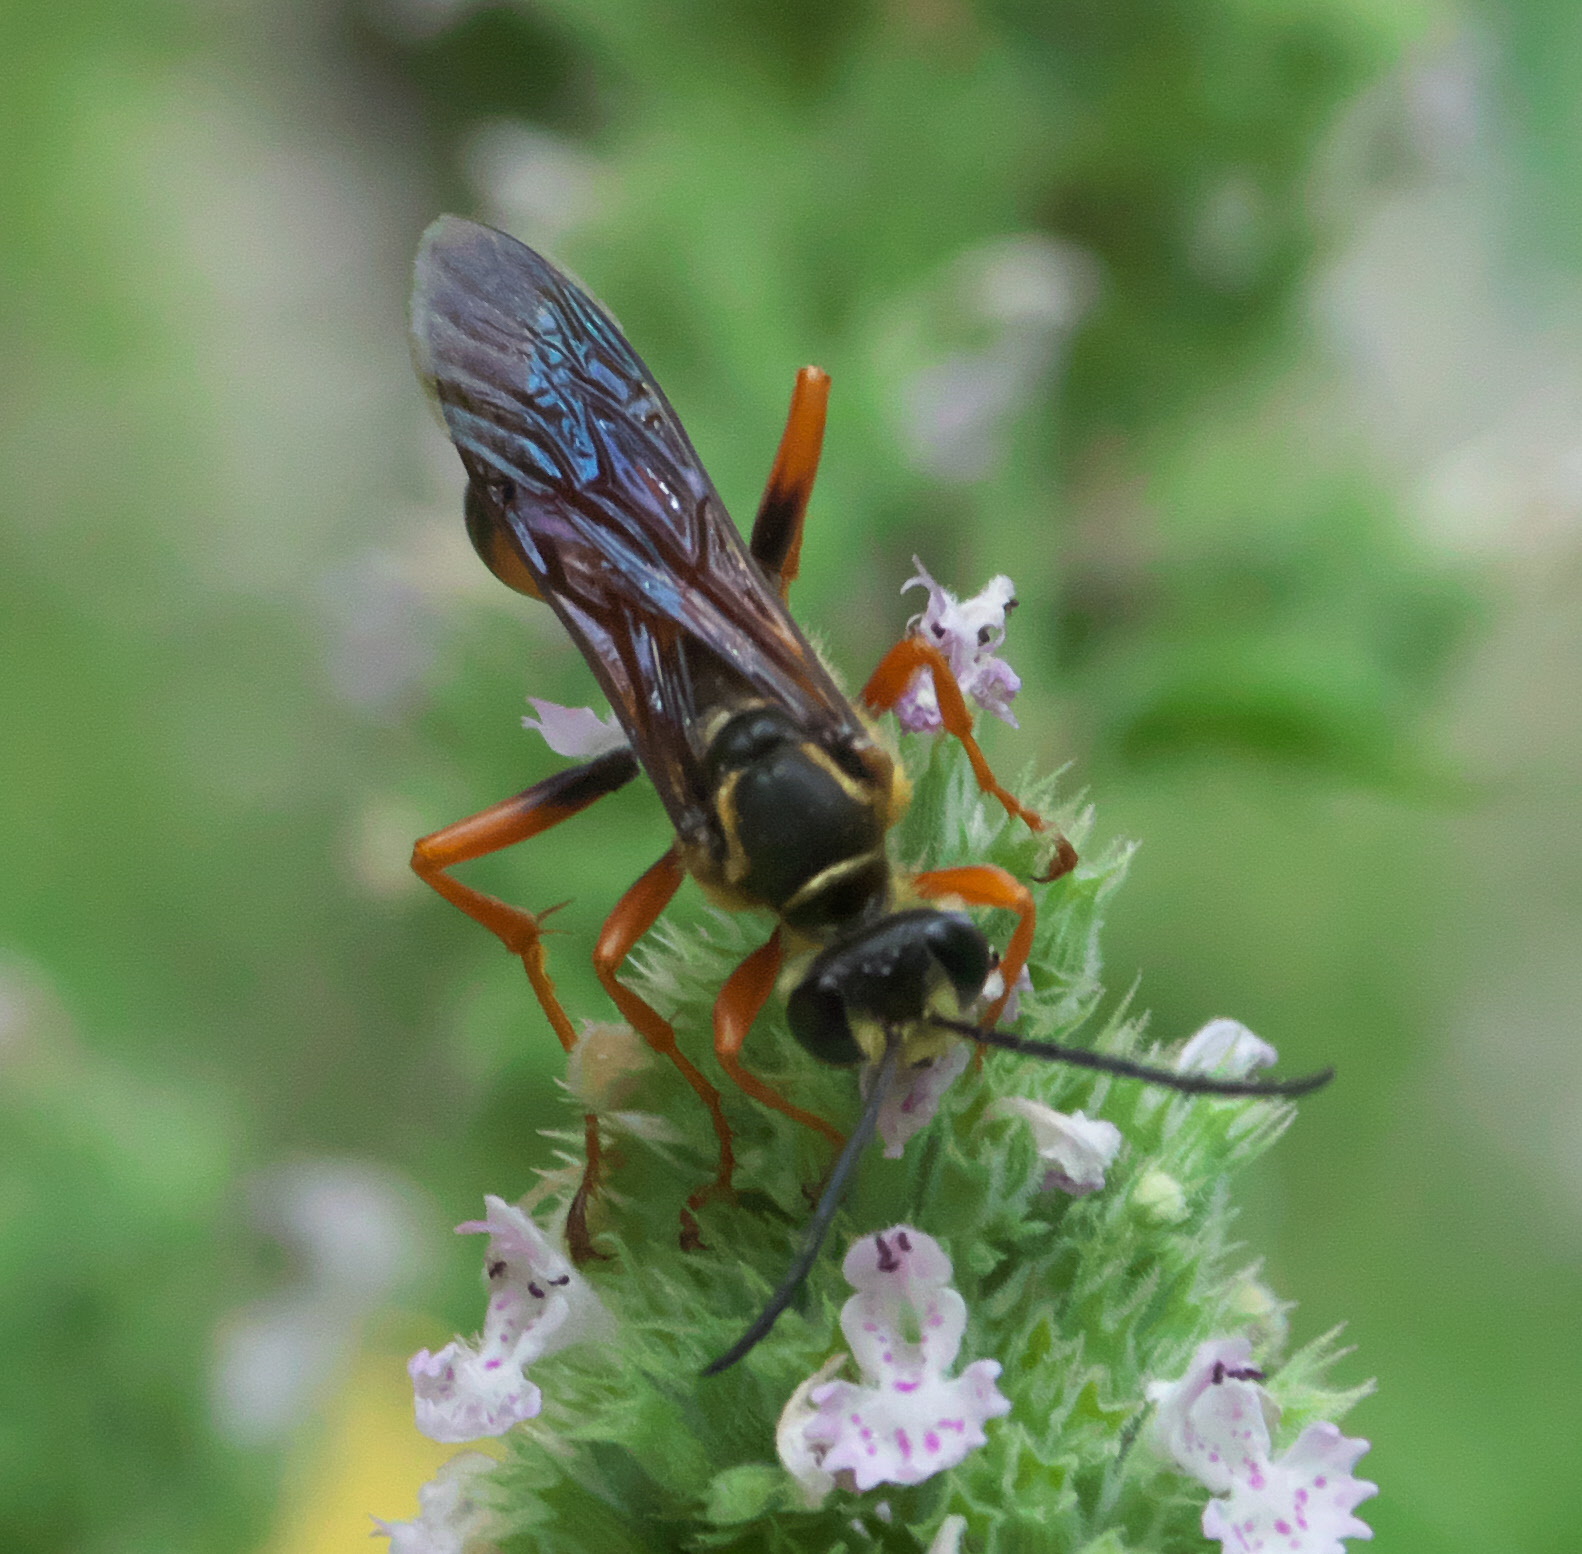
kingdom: Animalia
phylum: Arthropoda
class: Insecta
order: Hymenoptera
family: Sphecidae
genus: Sphex
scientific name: Sphex ichneumoneus
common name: Great golden digger wasp
